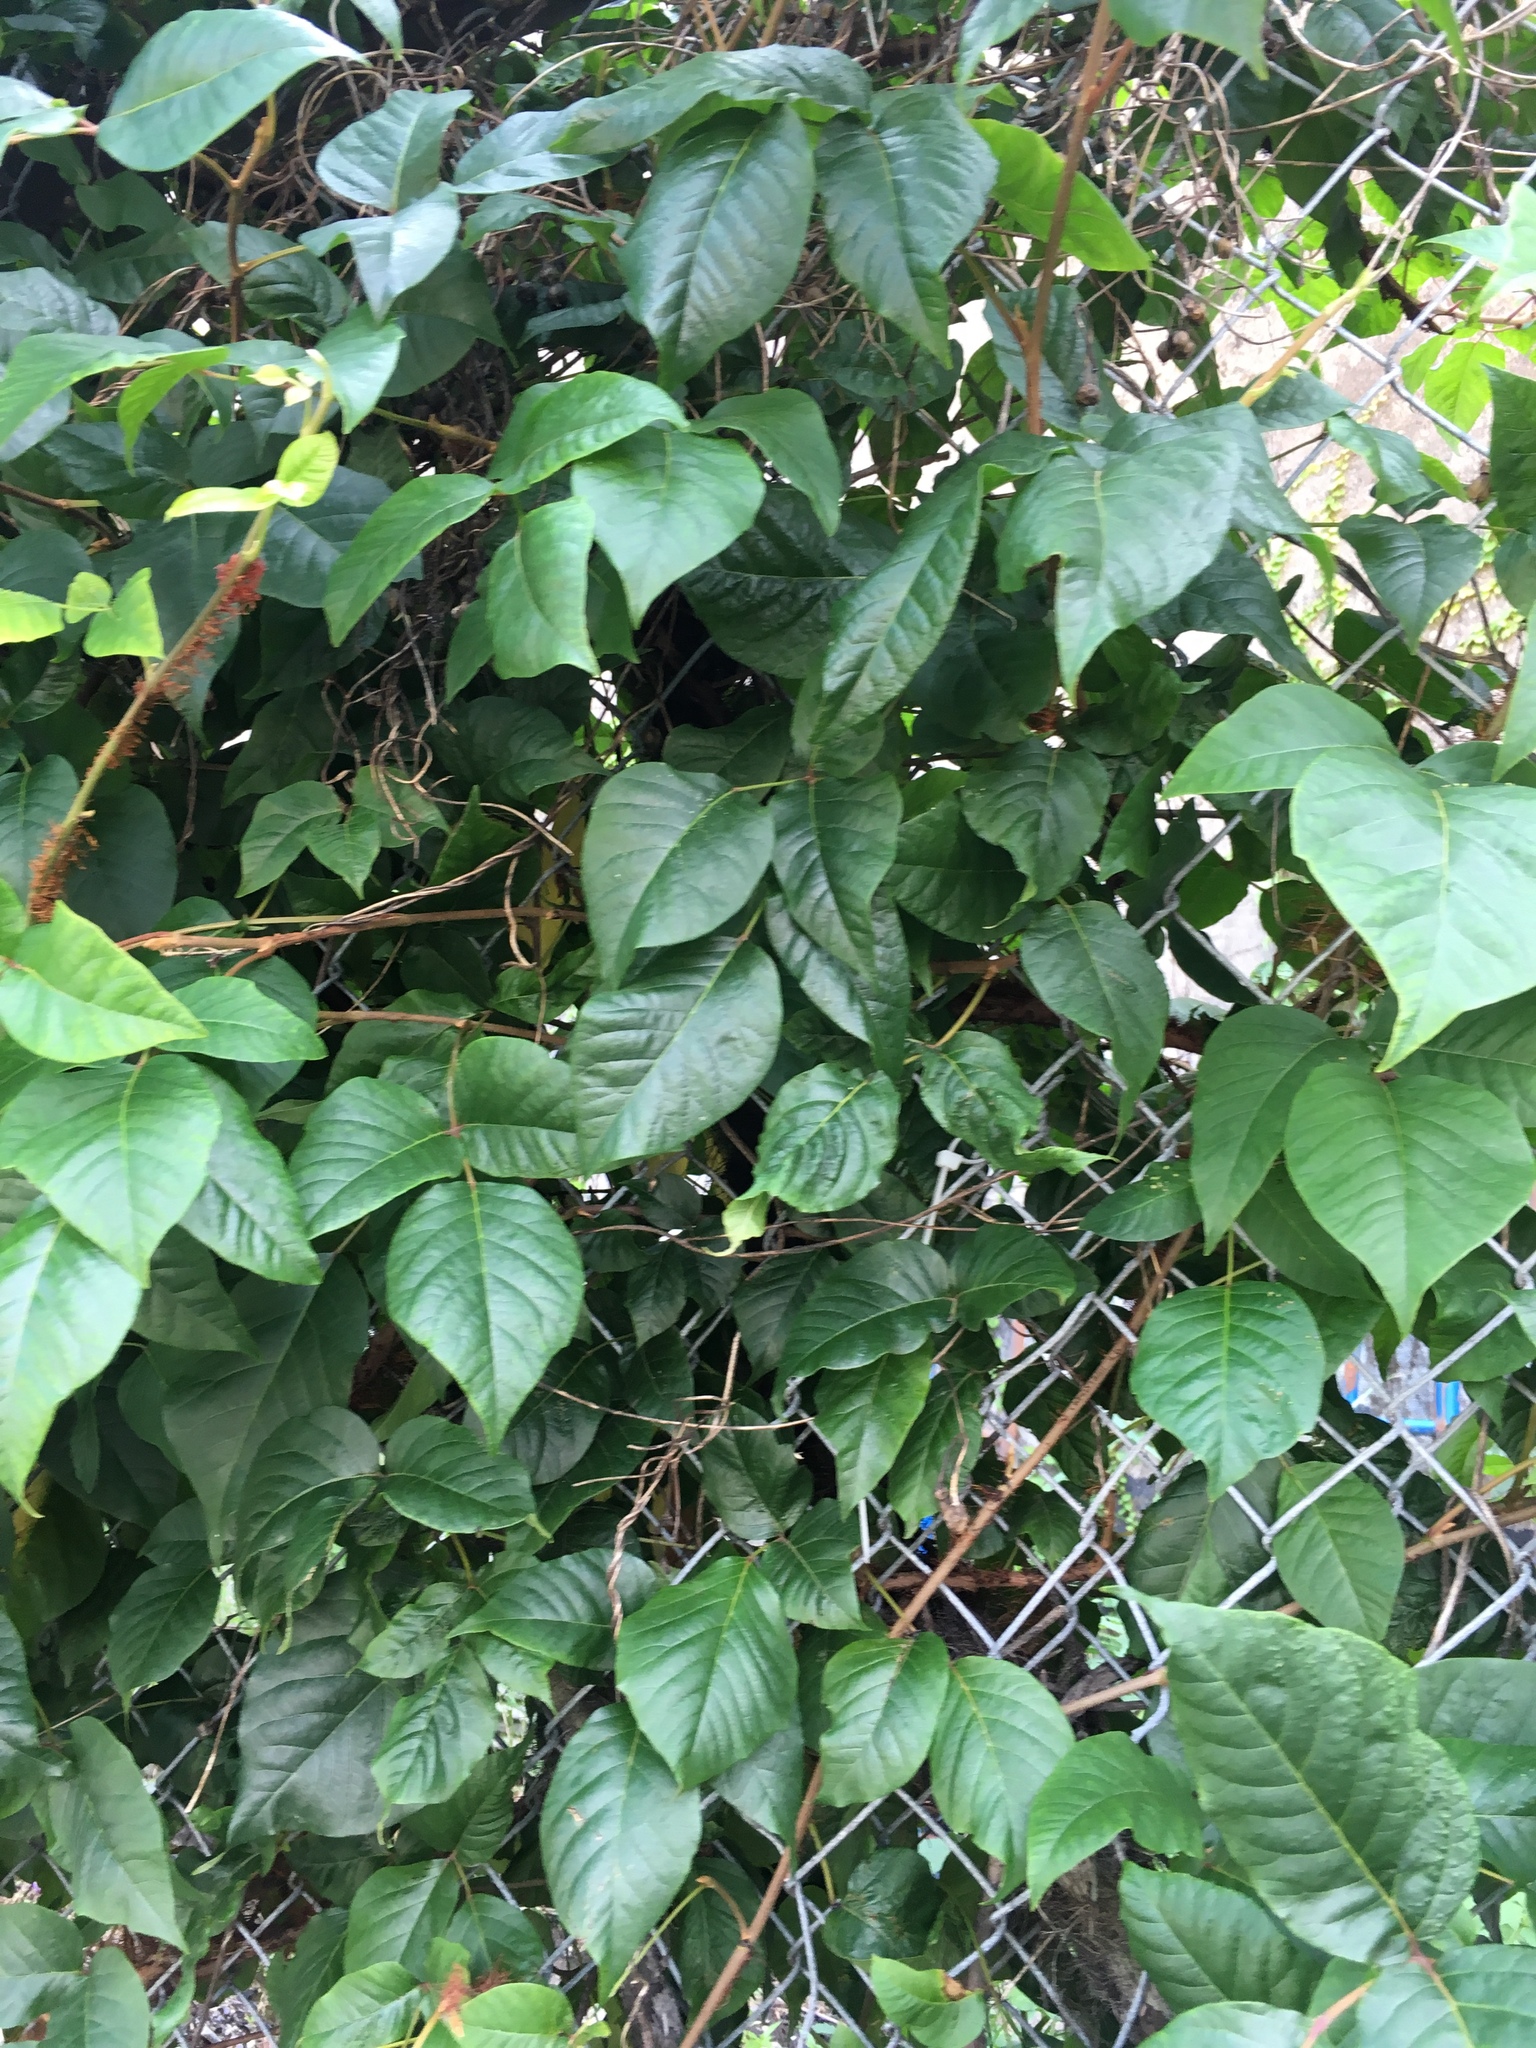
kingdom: Plantae
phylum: Tracheophyta
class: Magnoliopsida
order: Sapindales
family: Anacardiaceae
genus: Toxicodendron
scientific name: Toxicodendron radicans
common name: Poison ivy
